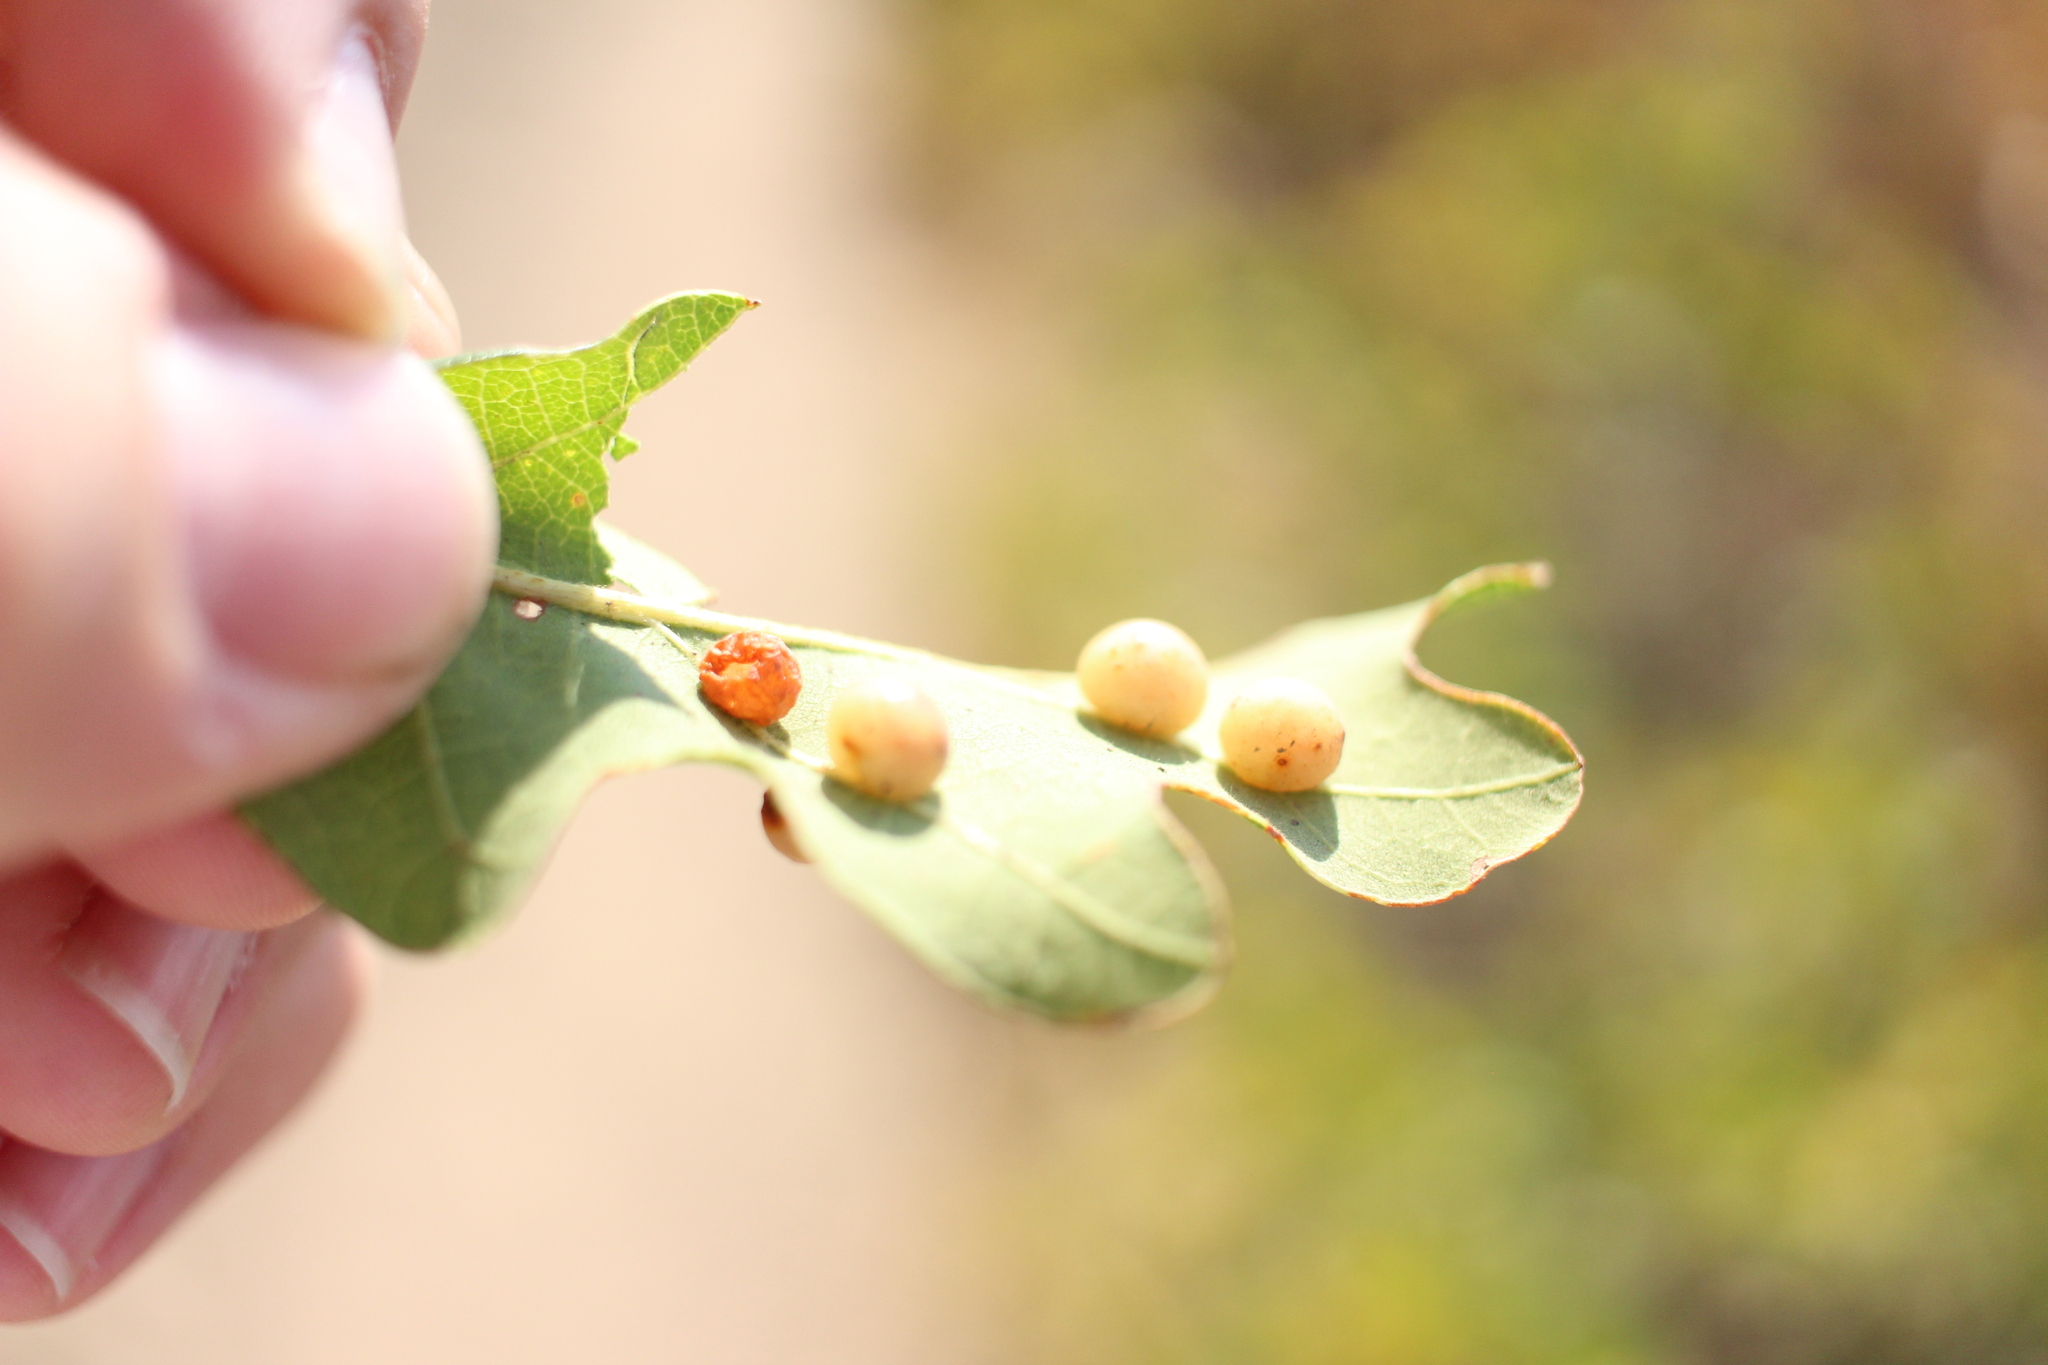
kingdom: Animalia
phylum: Arthropoda
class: Insecta
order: Hymenoptera
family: Cynipidae
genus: Trigonaspis
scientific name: Trigonaspis
